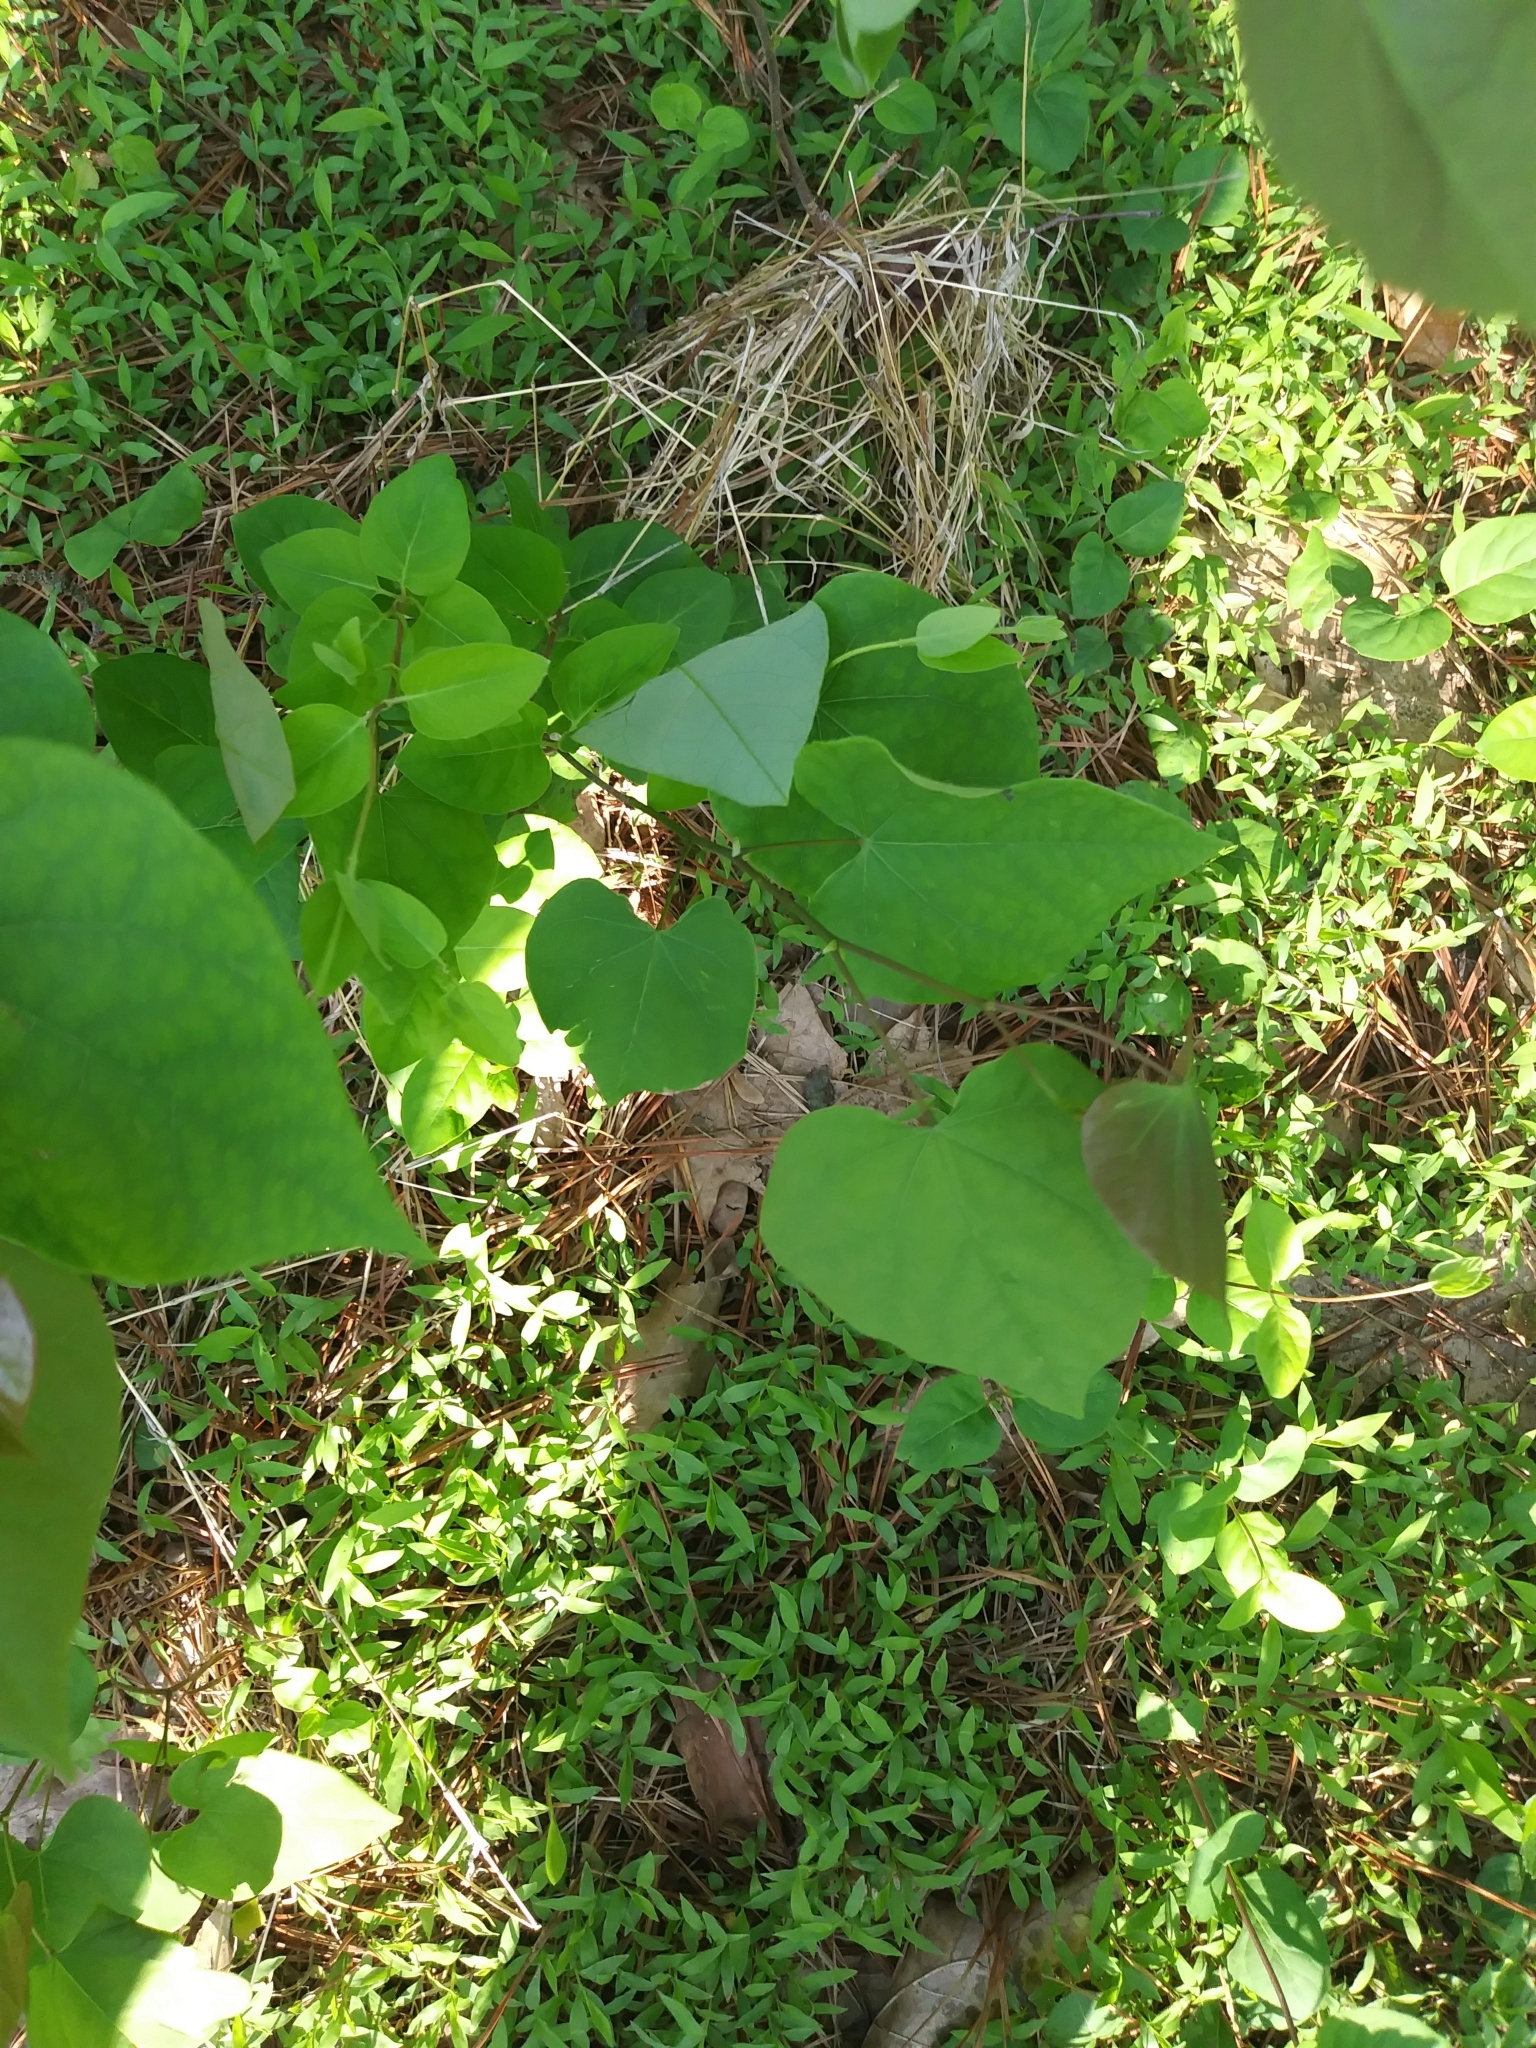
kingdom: Plantae
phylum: Tracheophyta
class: Magnoliopsida
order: Fabales
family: Fabaceae
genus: Cercis
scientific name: Cercis canadensis
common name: Eastern redbud
